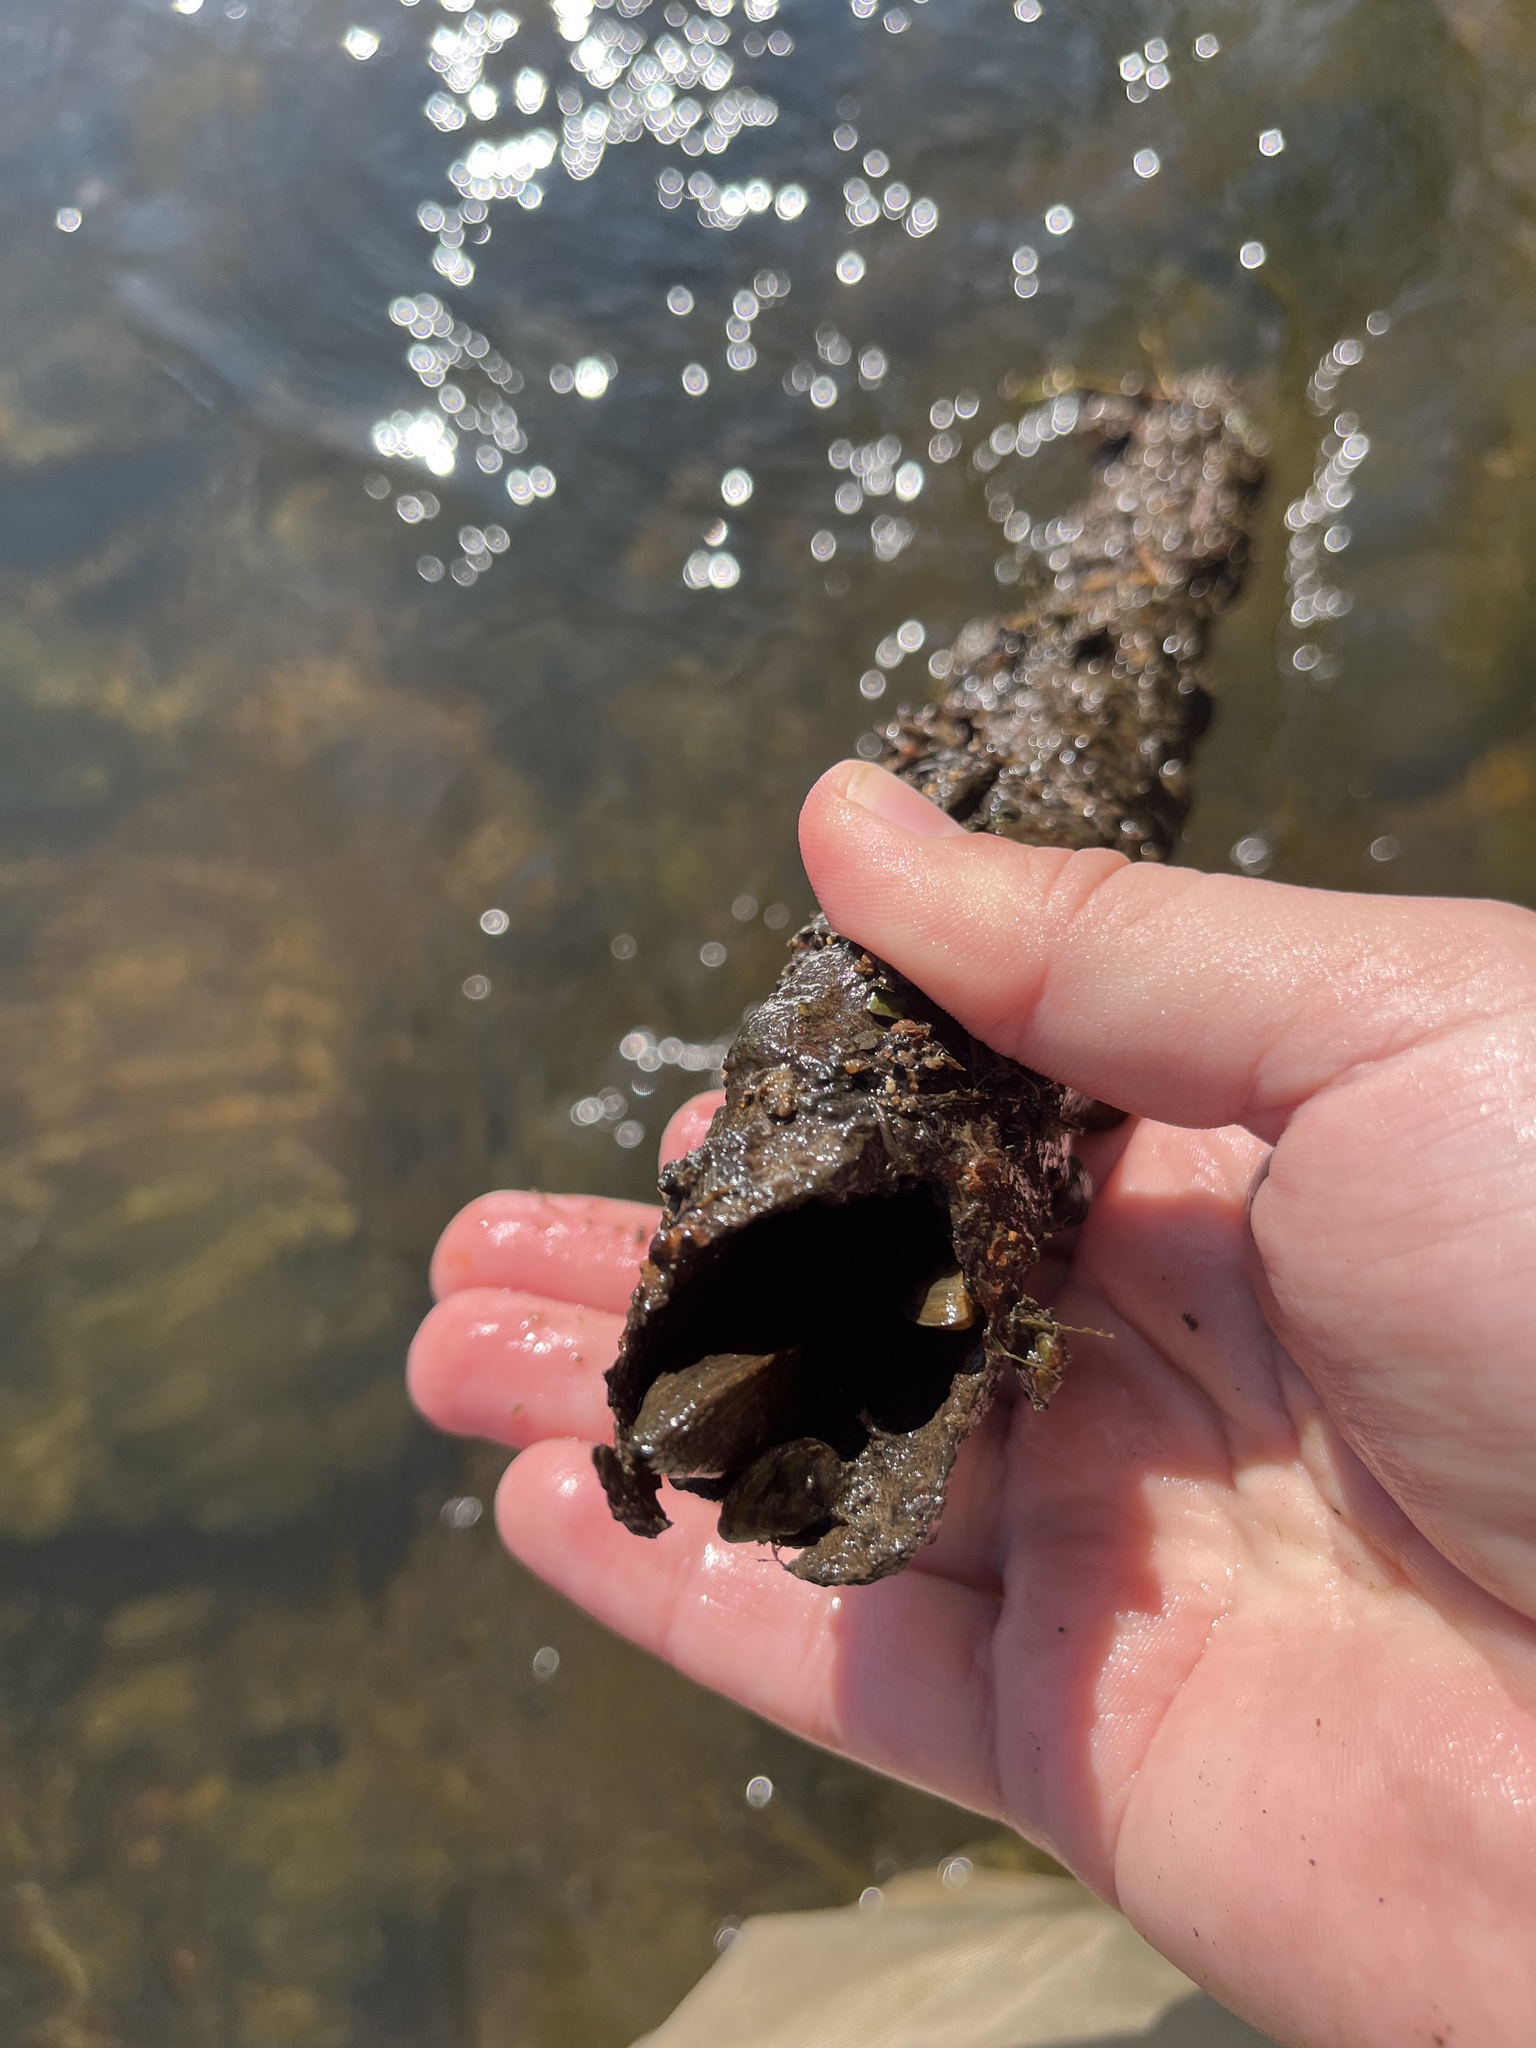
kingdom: Animalia
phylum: Mollusca
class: Bivalvia
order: Myida
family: Dreissenidae
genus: Dreissena
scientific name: Dreissena polymorpha
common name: Zebra mussel
